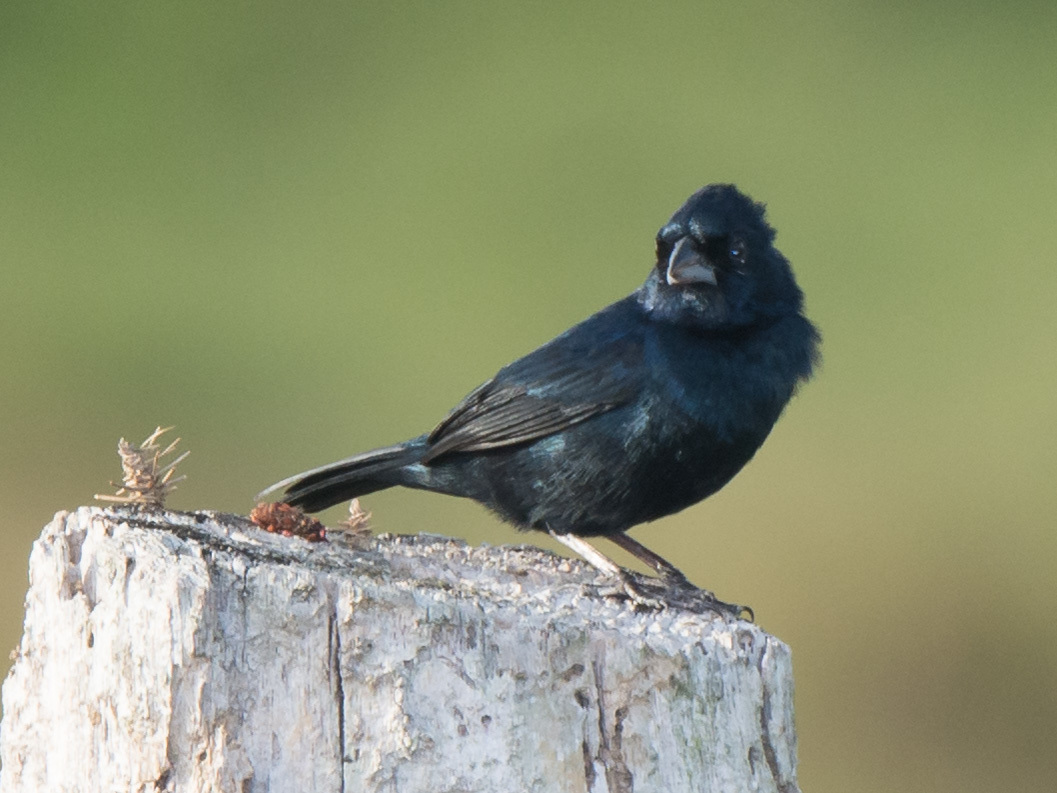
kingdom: Animalia
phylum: Chordata
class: Aves
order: Passeriformes
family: Thraupidae
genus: Volatinia
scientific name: Volatinia jacarina
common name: Blue-black grassquit
